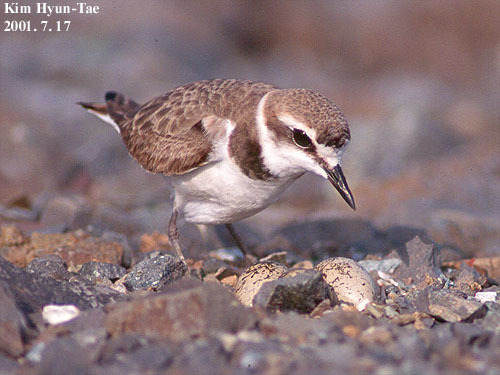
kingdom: Animalia
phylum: Chordata
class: Aves
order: Charadriiformes
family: Charadriidae
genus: Charadrius
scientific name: Charadrius alexandrinus
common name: Kentish plover
